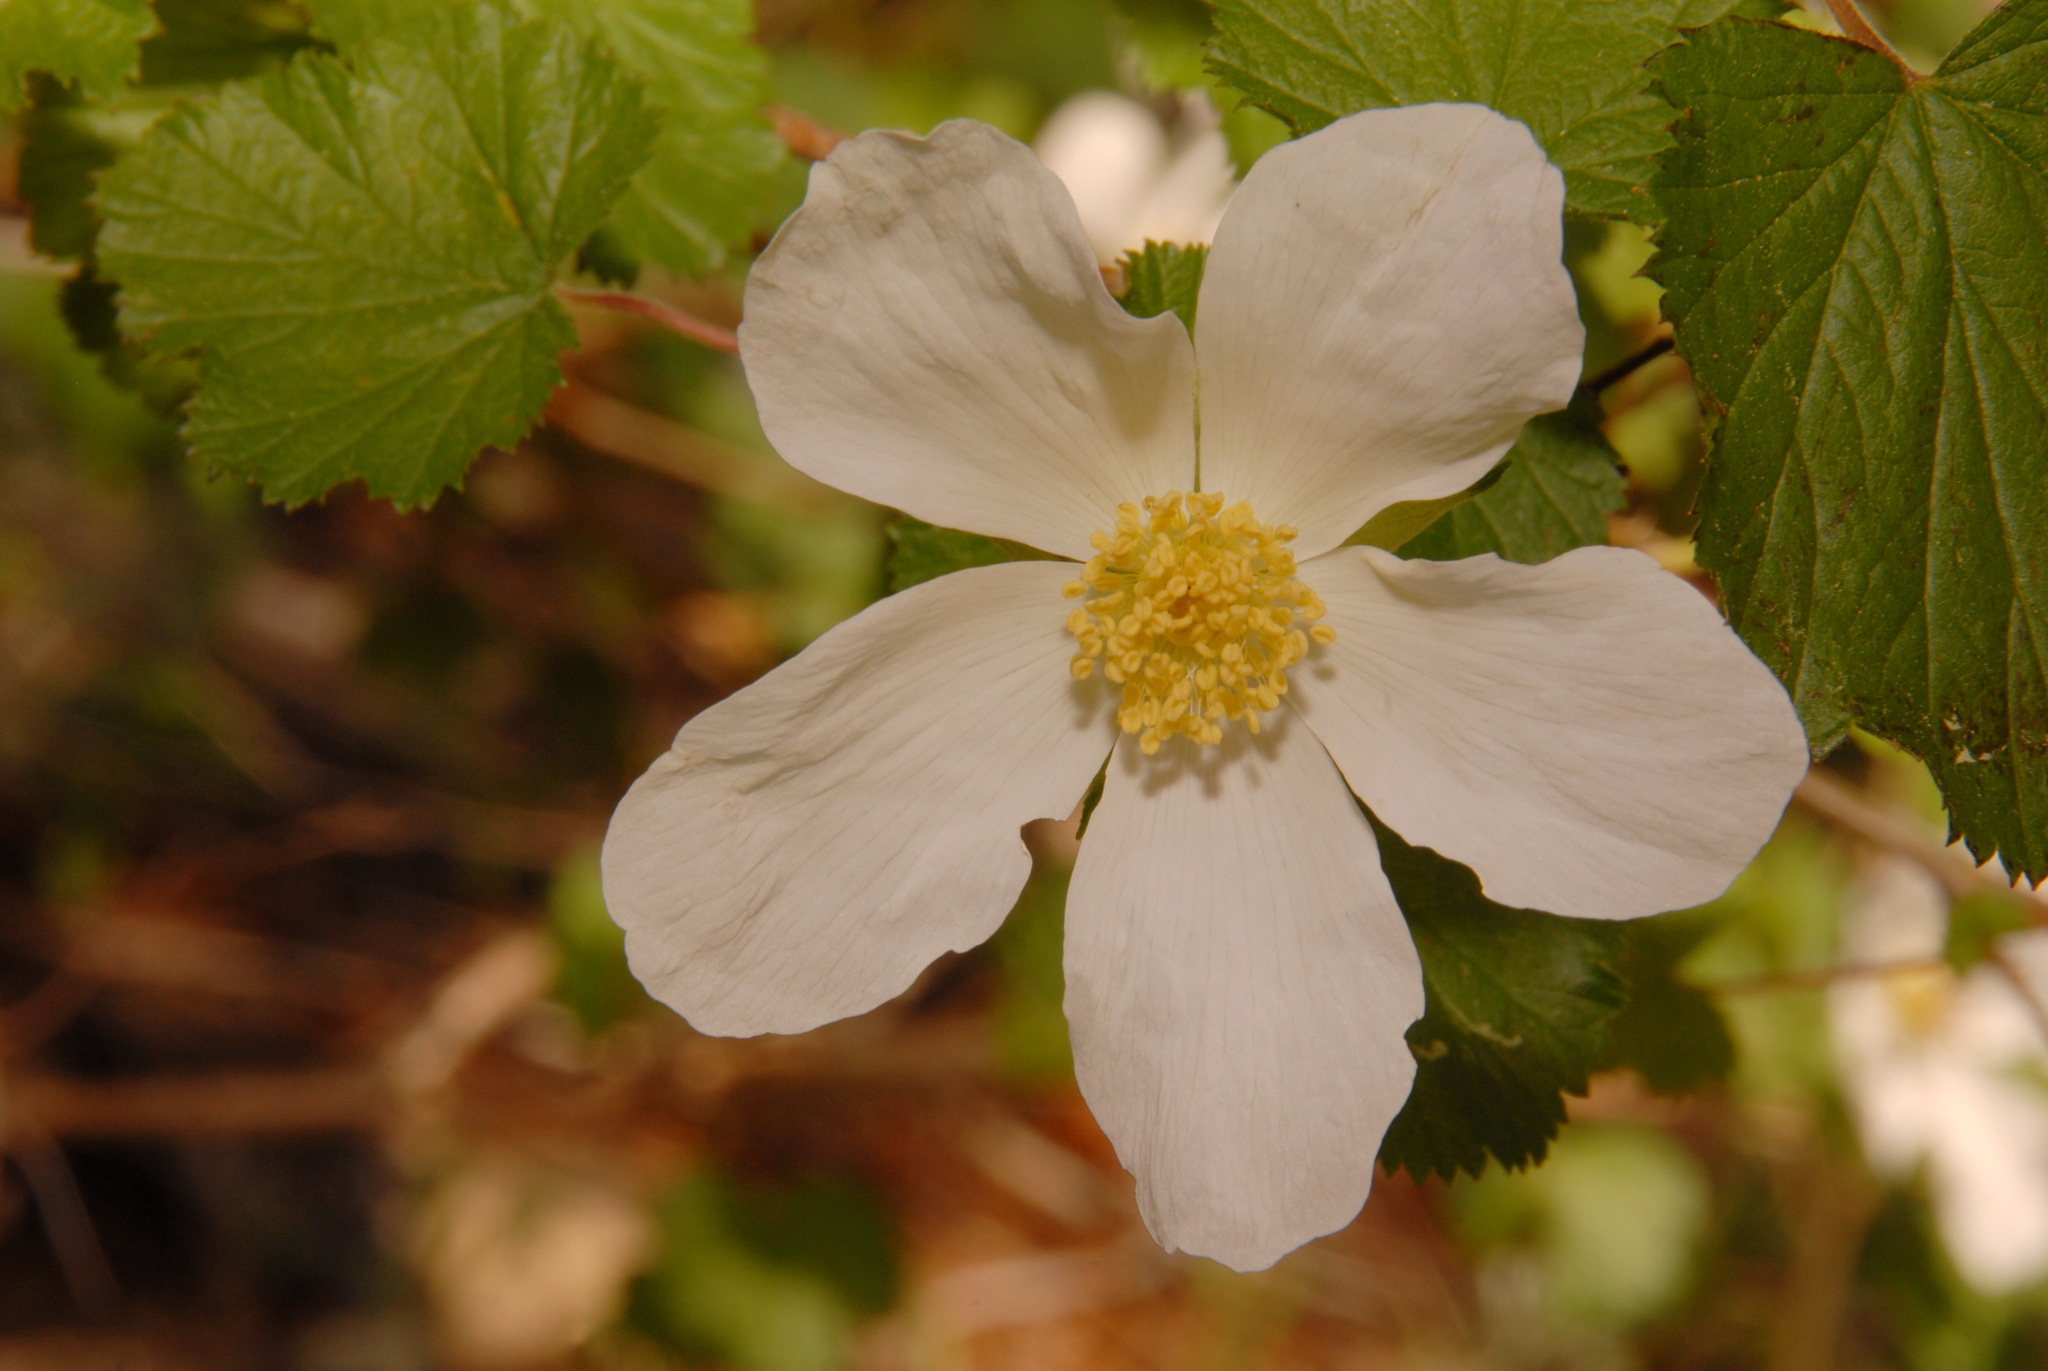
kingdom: Plantae
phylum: Tracheophyta
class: Magnoliopsida
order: Rosales
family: Rosaceae
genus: Rubus
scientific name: Rubus deliciosus
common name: Rocky mountain raspberry
